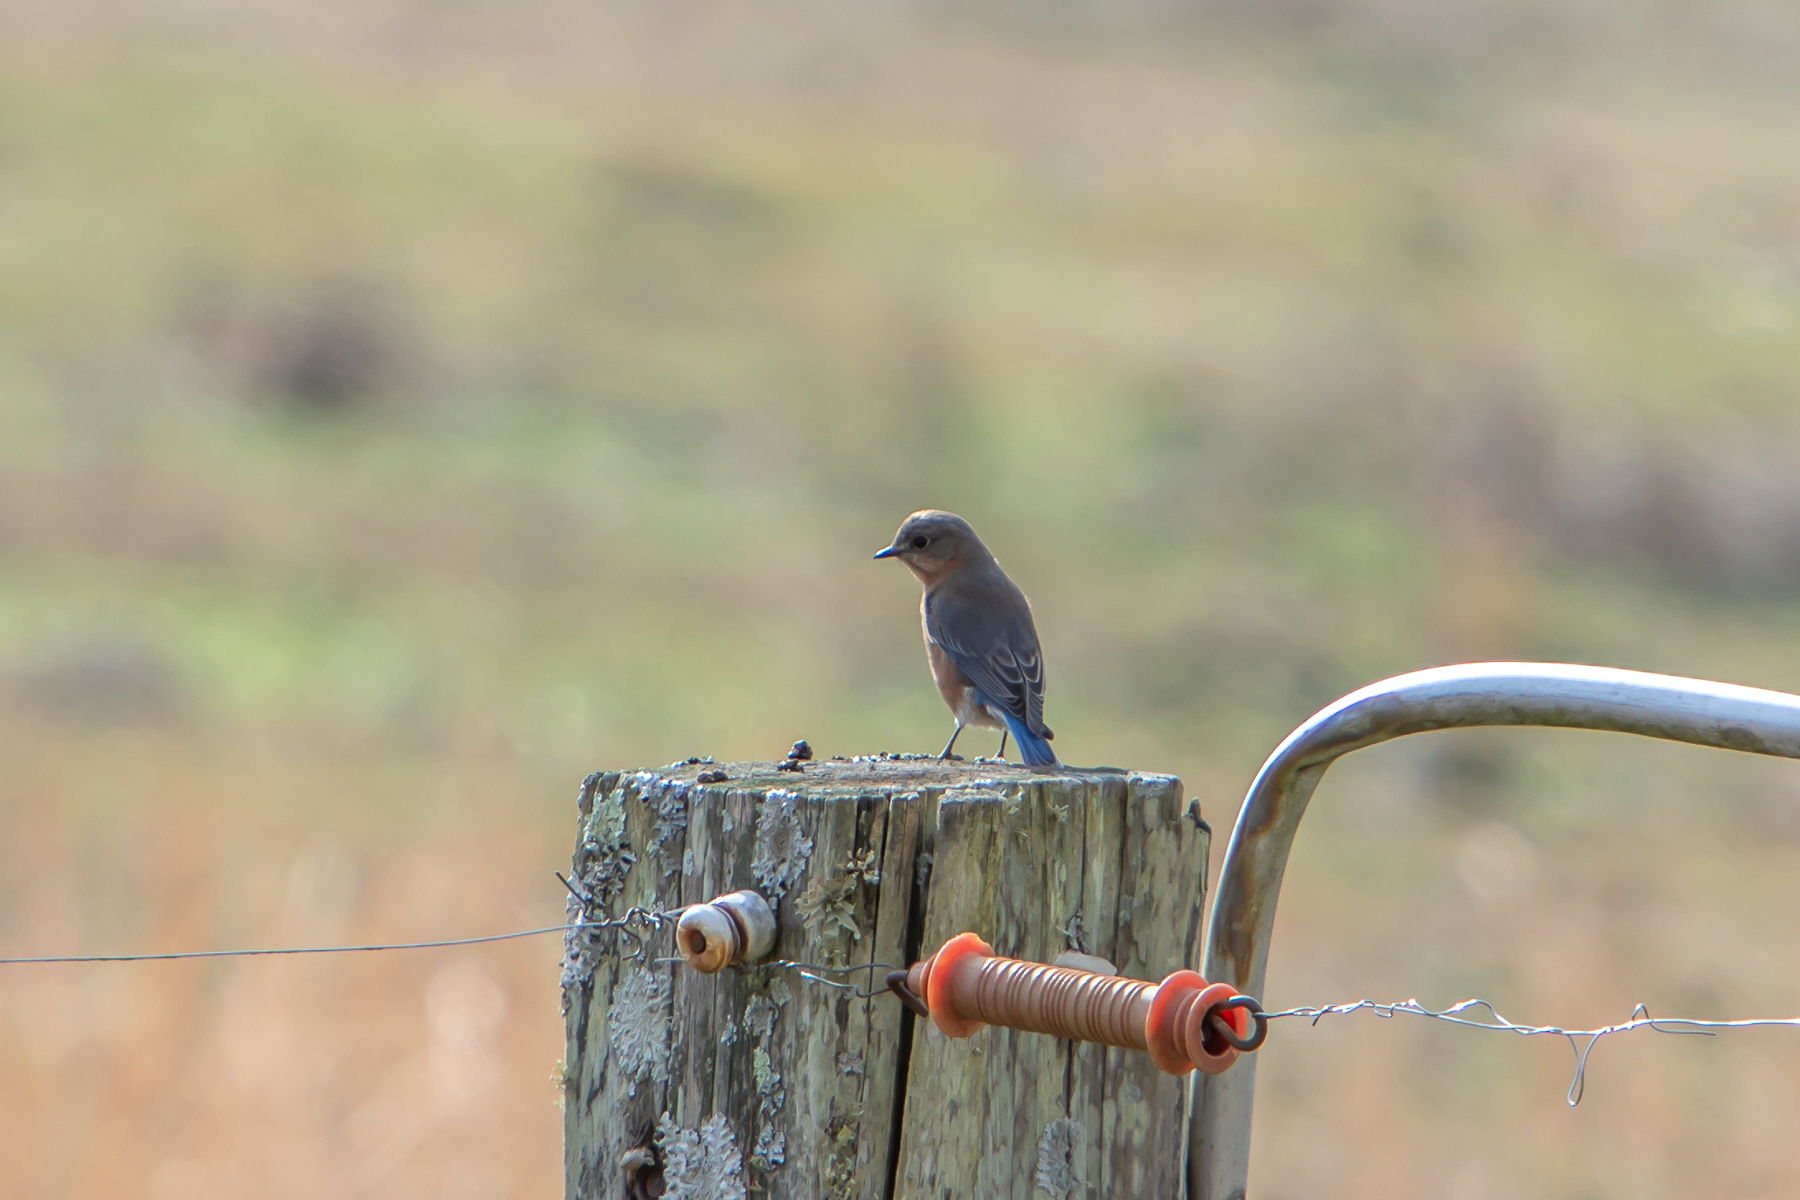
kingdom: Animalia
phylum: Chordata
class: Aves
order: Passeriformes
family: Turdidae
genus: Sialia
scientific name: Sialia sialis
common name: Eastern bluebird
